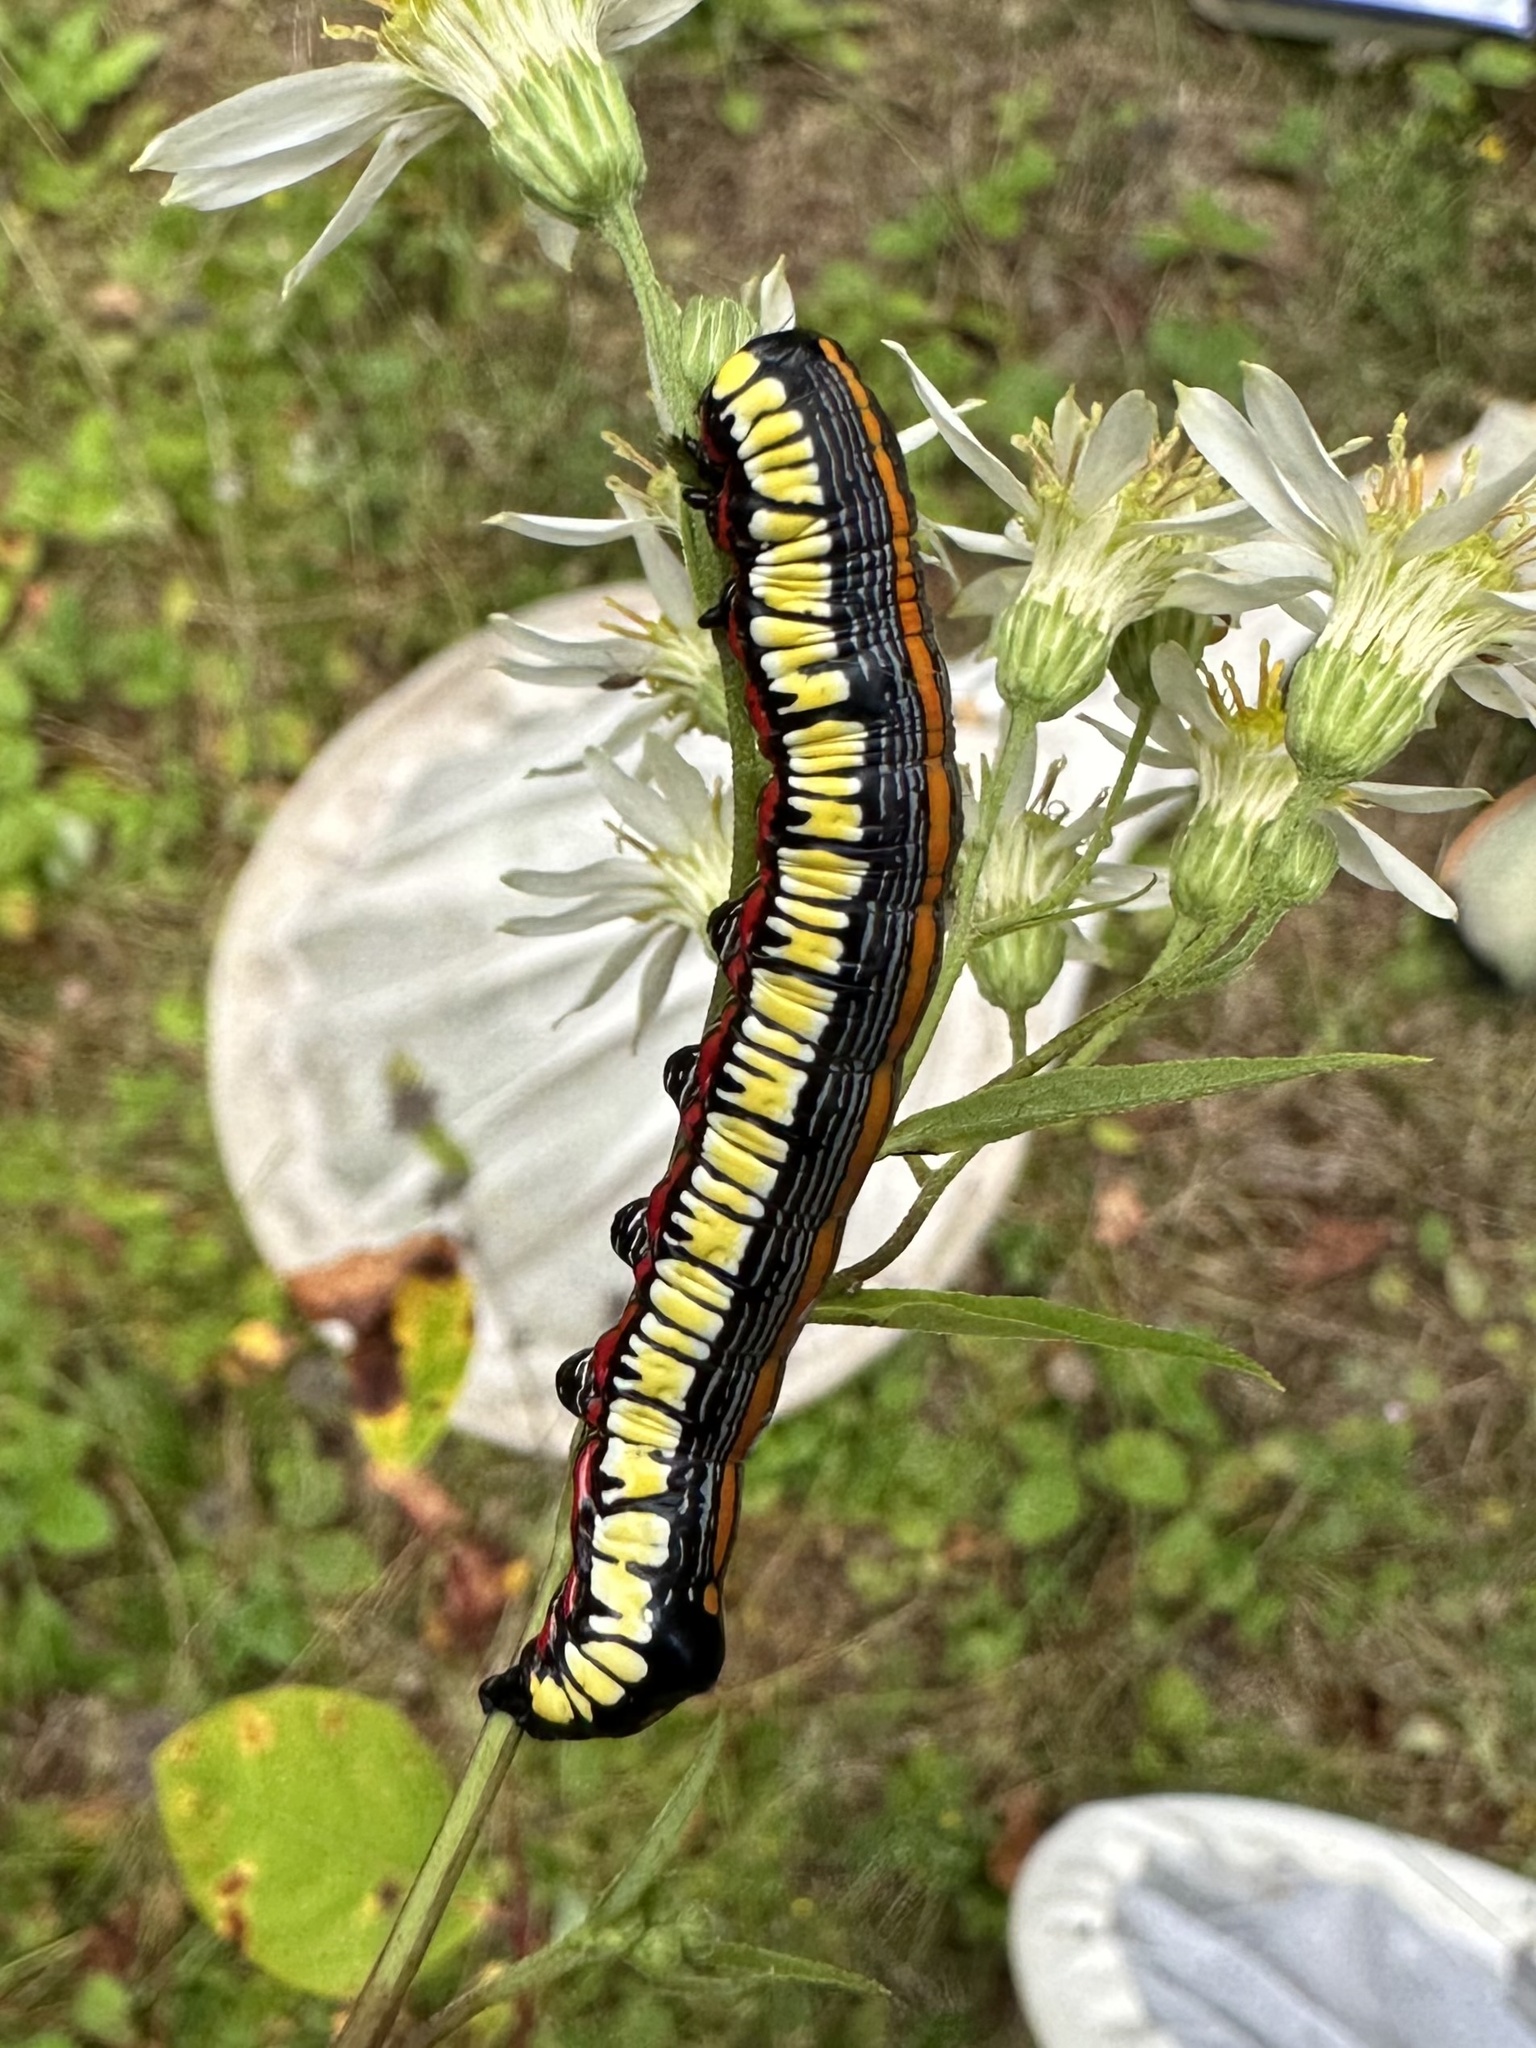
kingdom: Animalia
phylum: Arthropoda
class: Insecta
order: Lepidoptera
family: Noctuidae
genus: Cucullia
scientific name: Cucullia convexipennis
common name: Brown-hooded owlet
